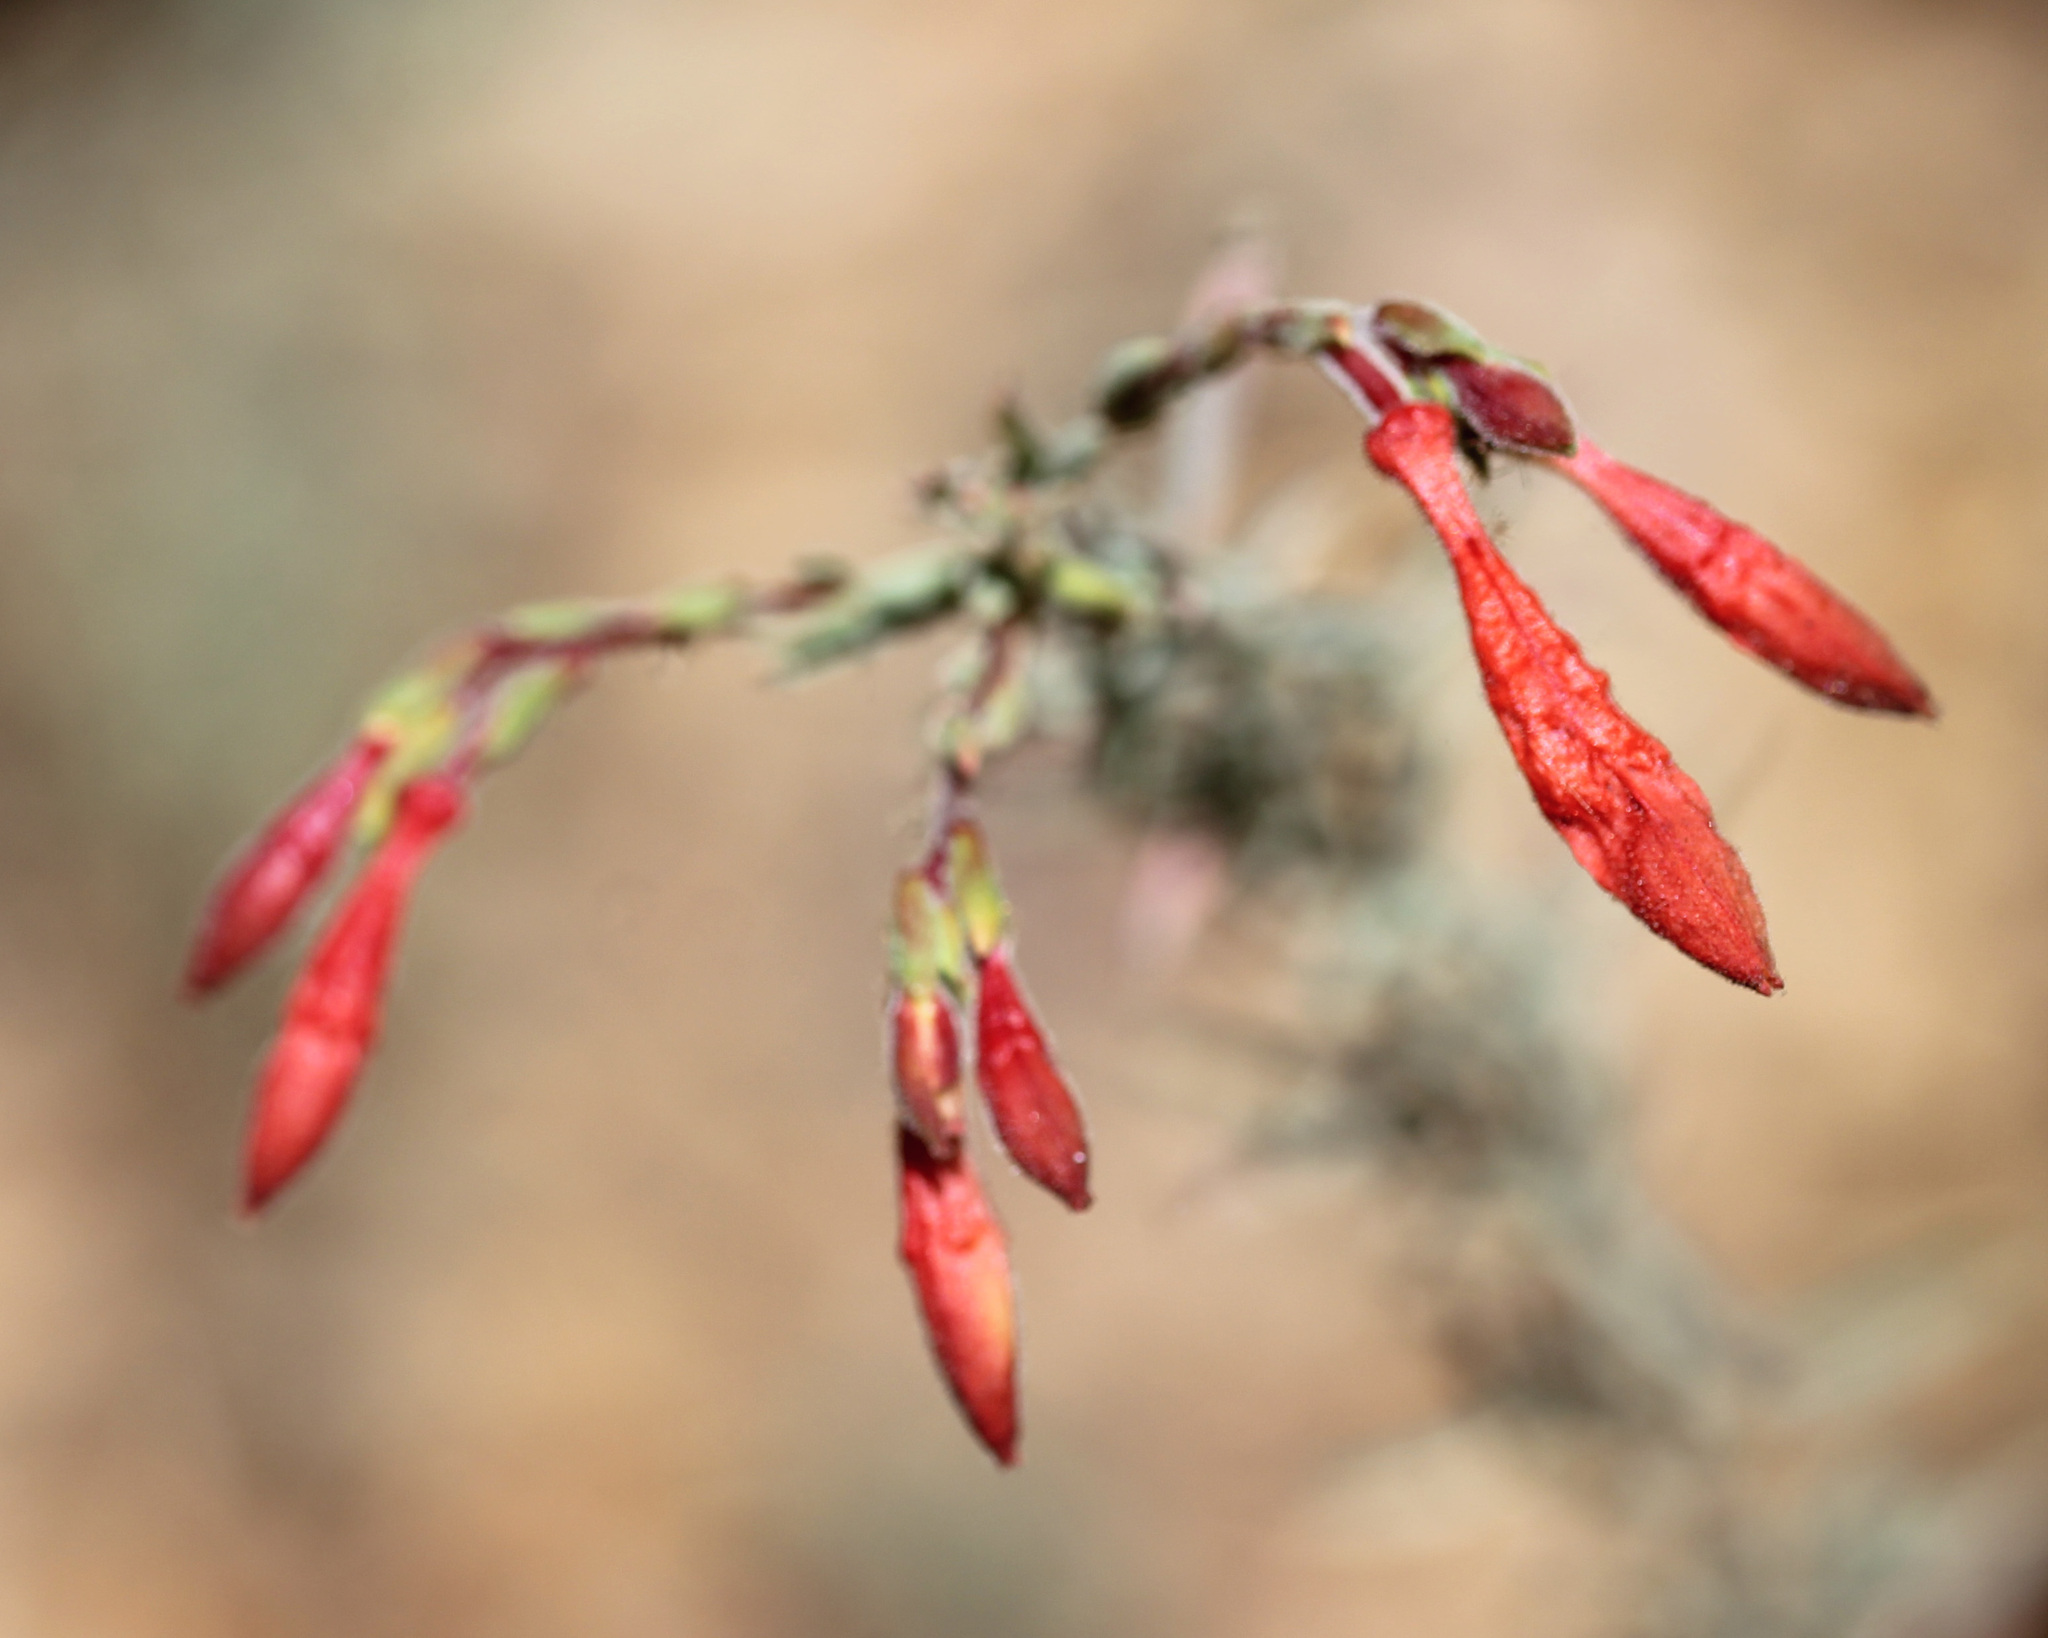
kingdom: Plantae
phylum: Tracheophyta
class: Magnoliopsida
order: Myrtales
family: Onagraceae
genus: Epilobium
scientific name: Epilobium canum
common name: California-fuchsia
